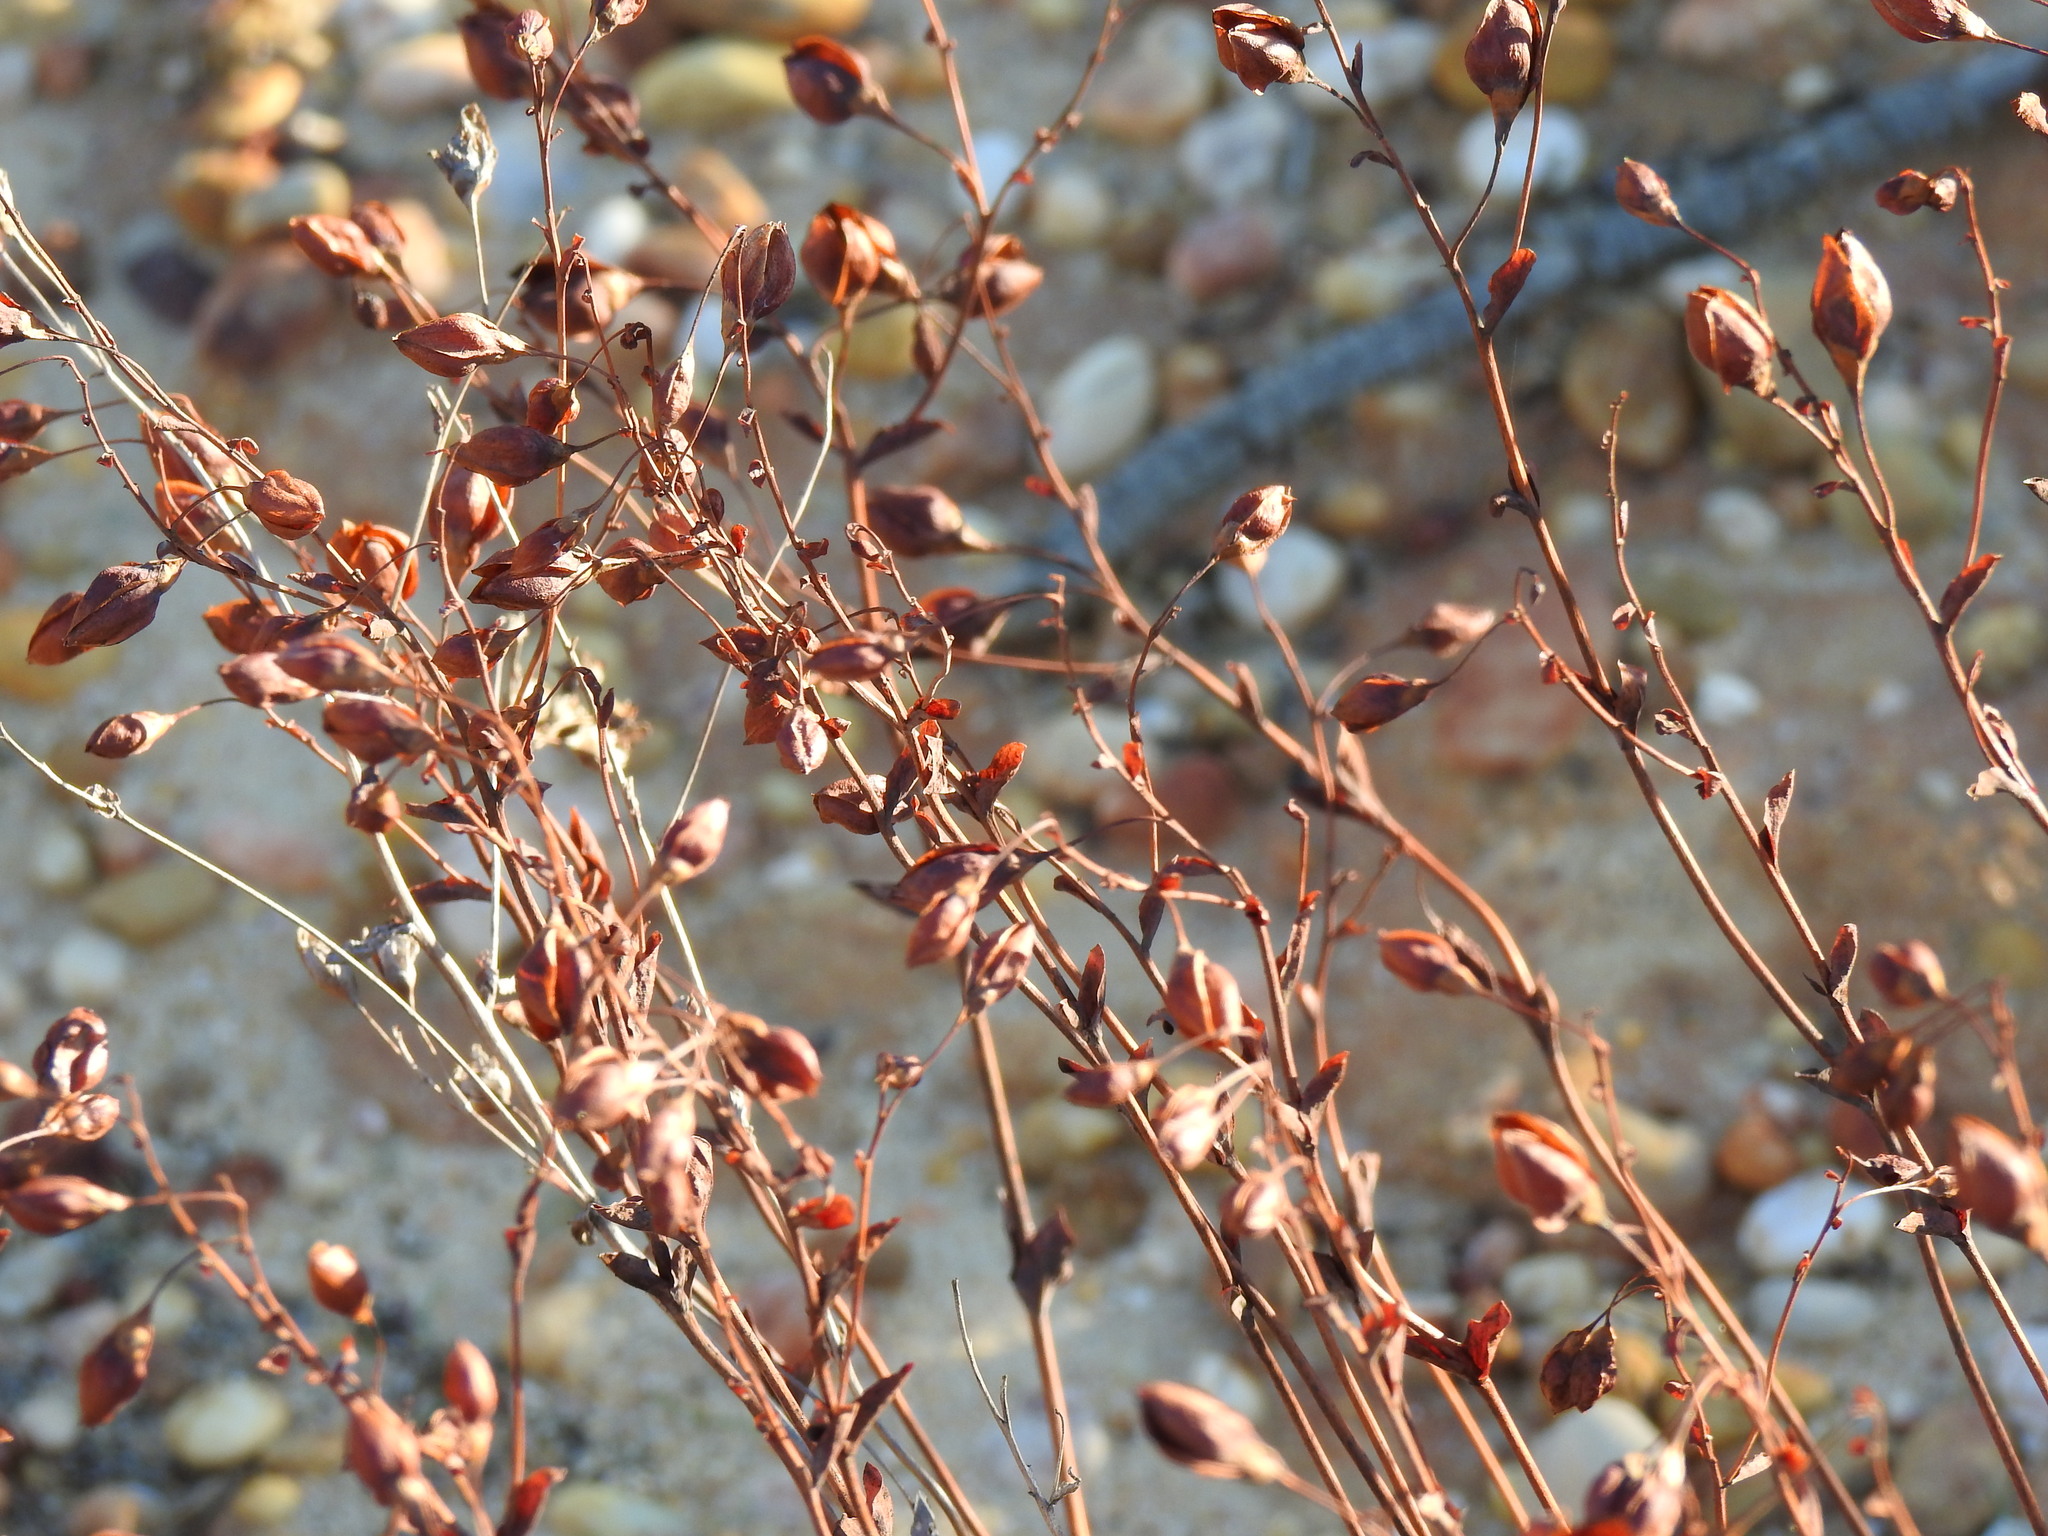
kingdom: Plantae
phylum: Tracheophyta
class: Magnoliopsida
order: Malvales
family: Cistaceae
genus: Tuberaria
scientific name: Tuberaria globulariifolia
